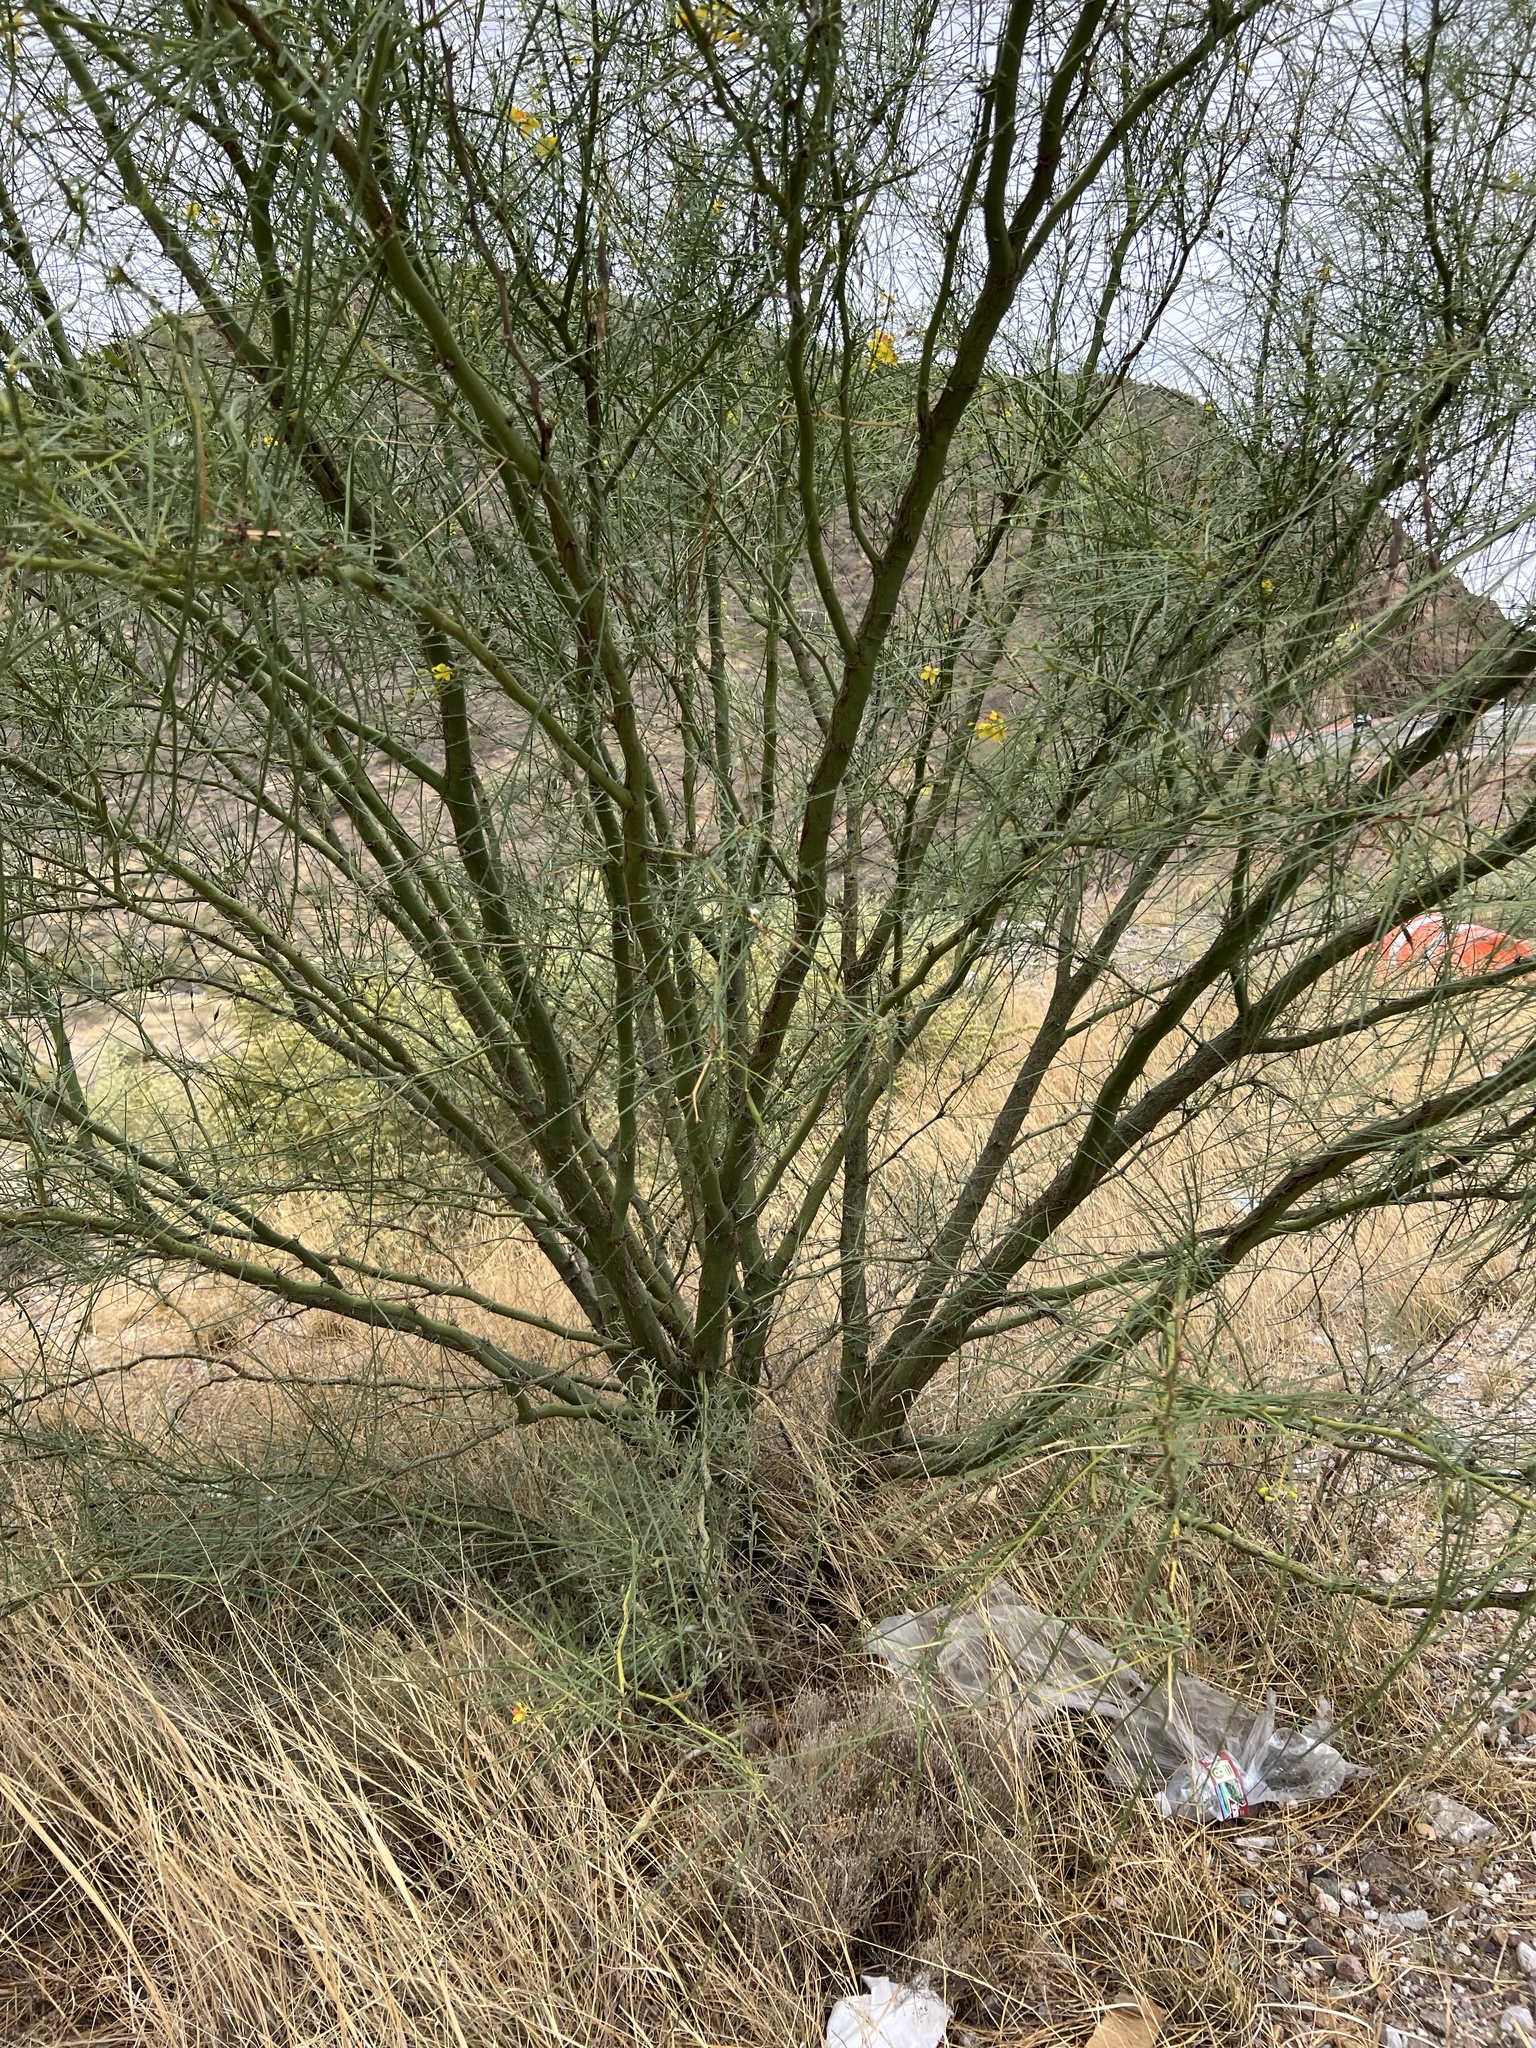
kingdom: Plantae
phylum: Tracheophyta
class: Magnoliopsida
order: Fabales
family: Fabaceae
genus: Parkinsonia
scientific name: Parkinsonia aculeata
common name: Jerusalem thorn
